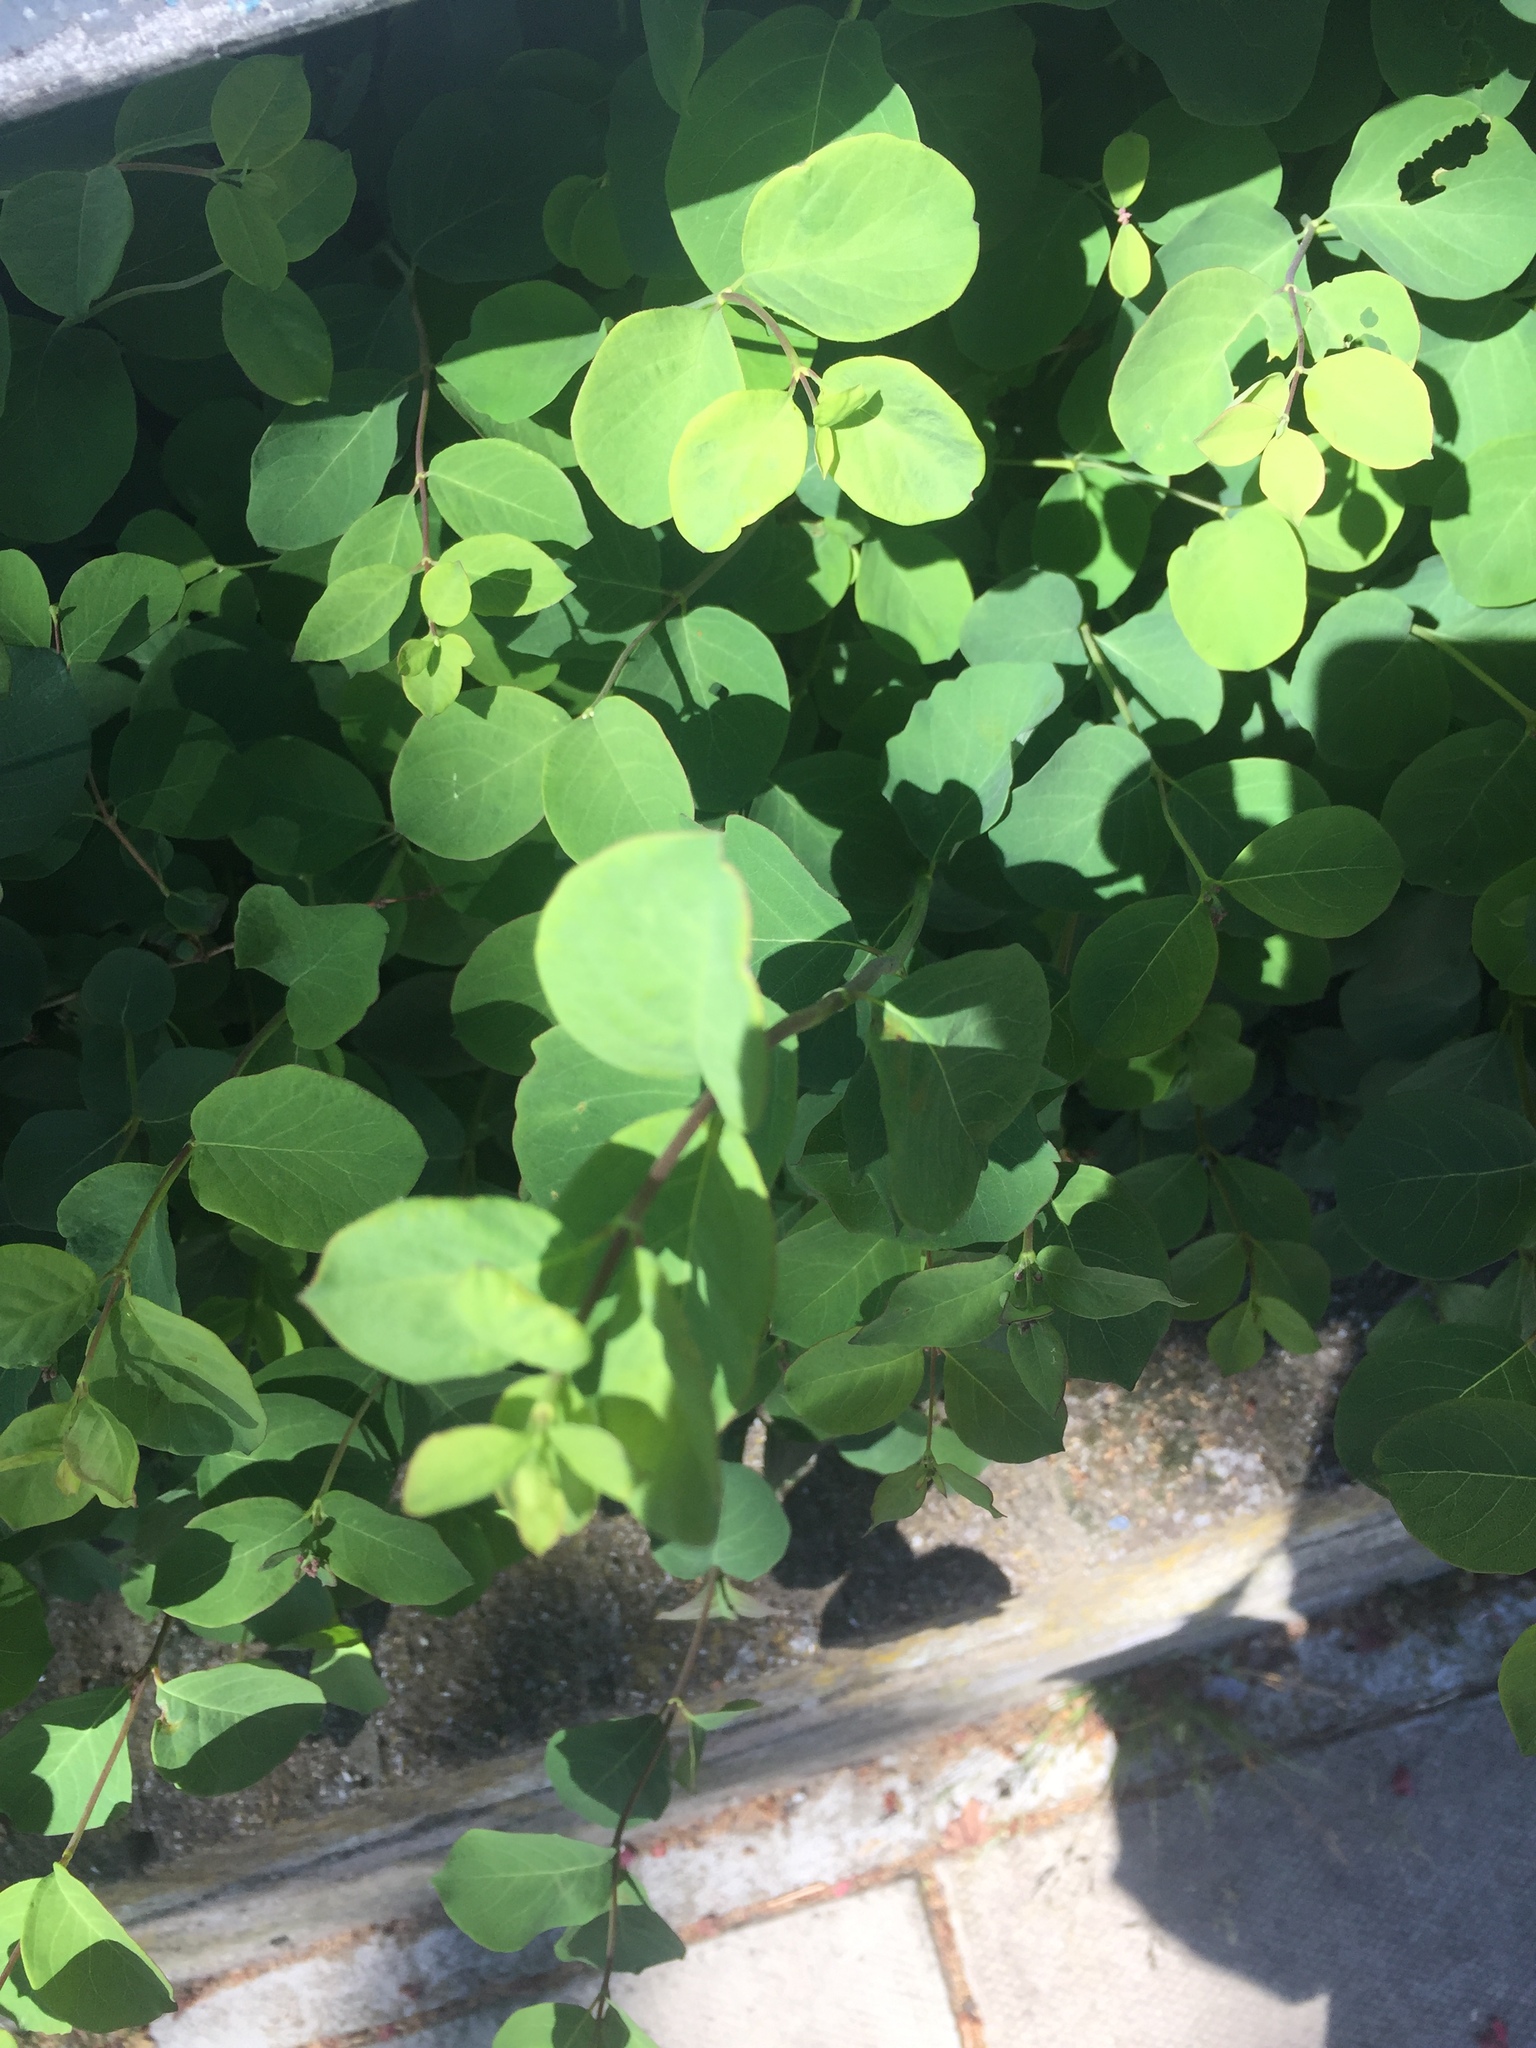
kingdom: Plantae
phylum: Tracheophyta
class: Magnoliopsida
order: Dipsacales
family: Caprifoliaceae
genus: Symphoricarpos
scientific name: Symphoricarpos albus
